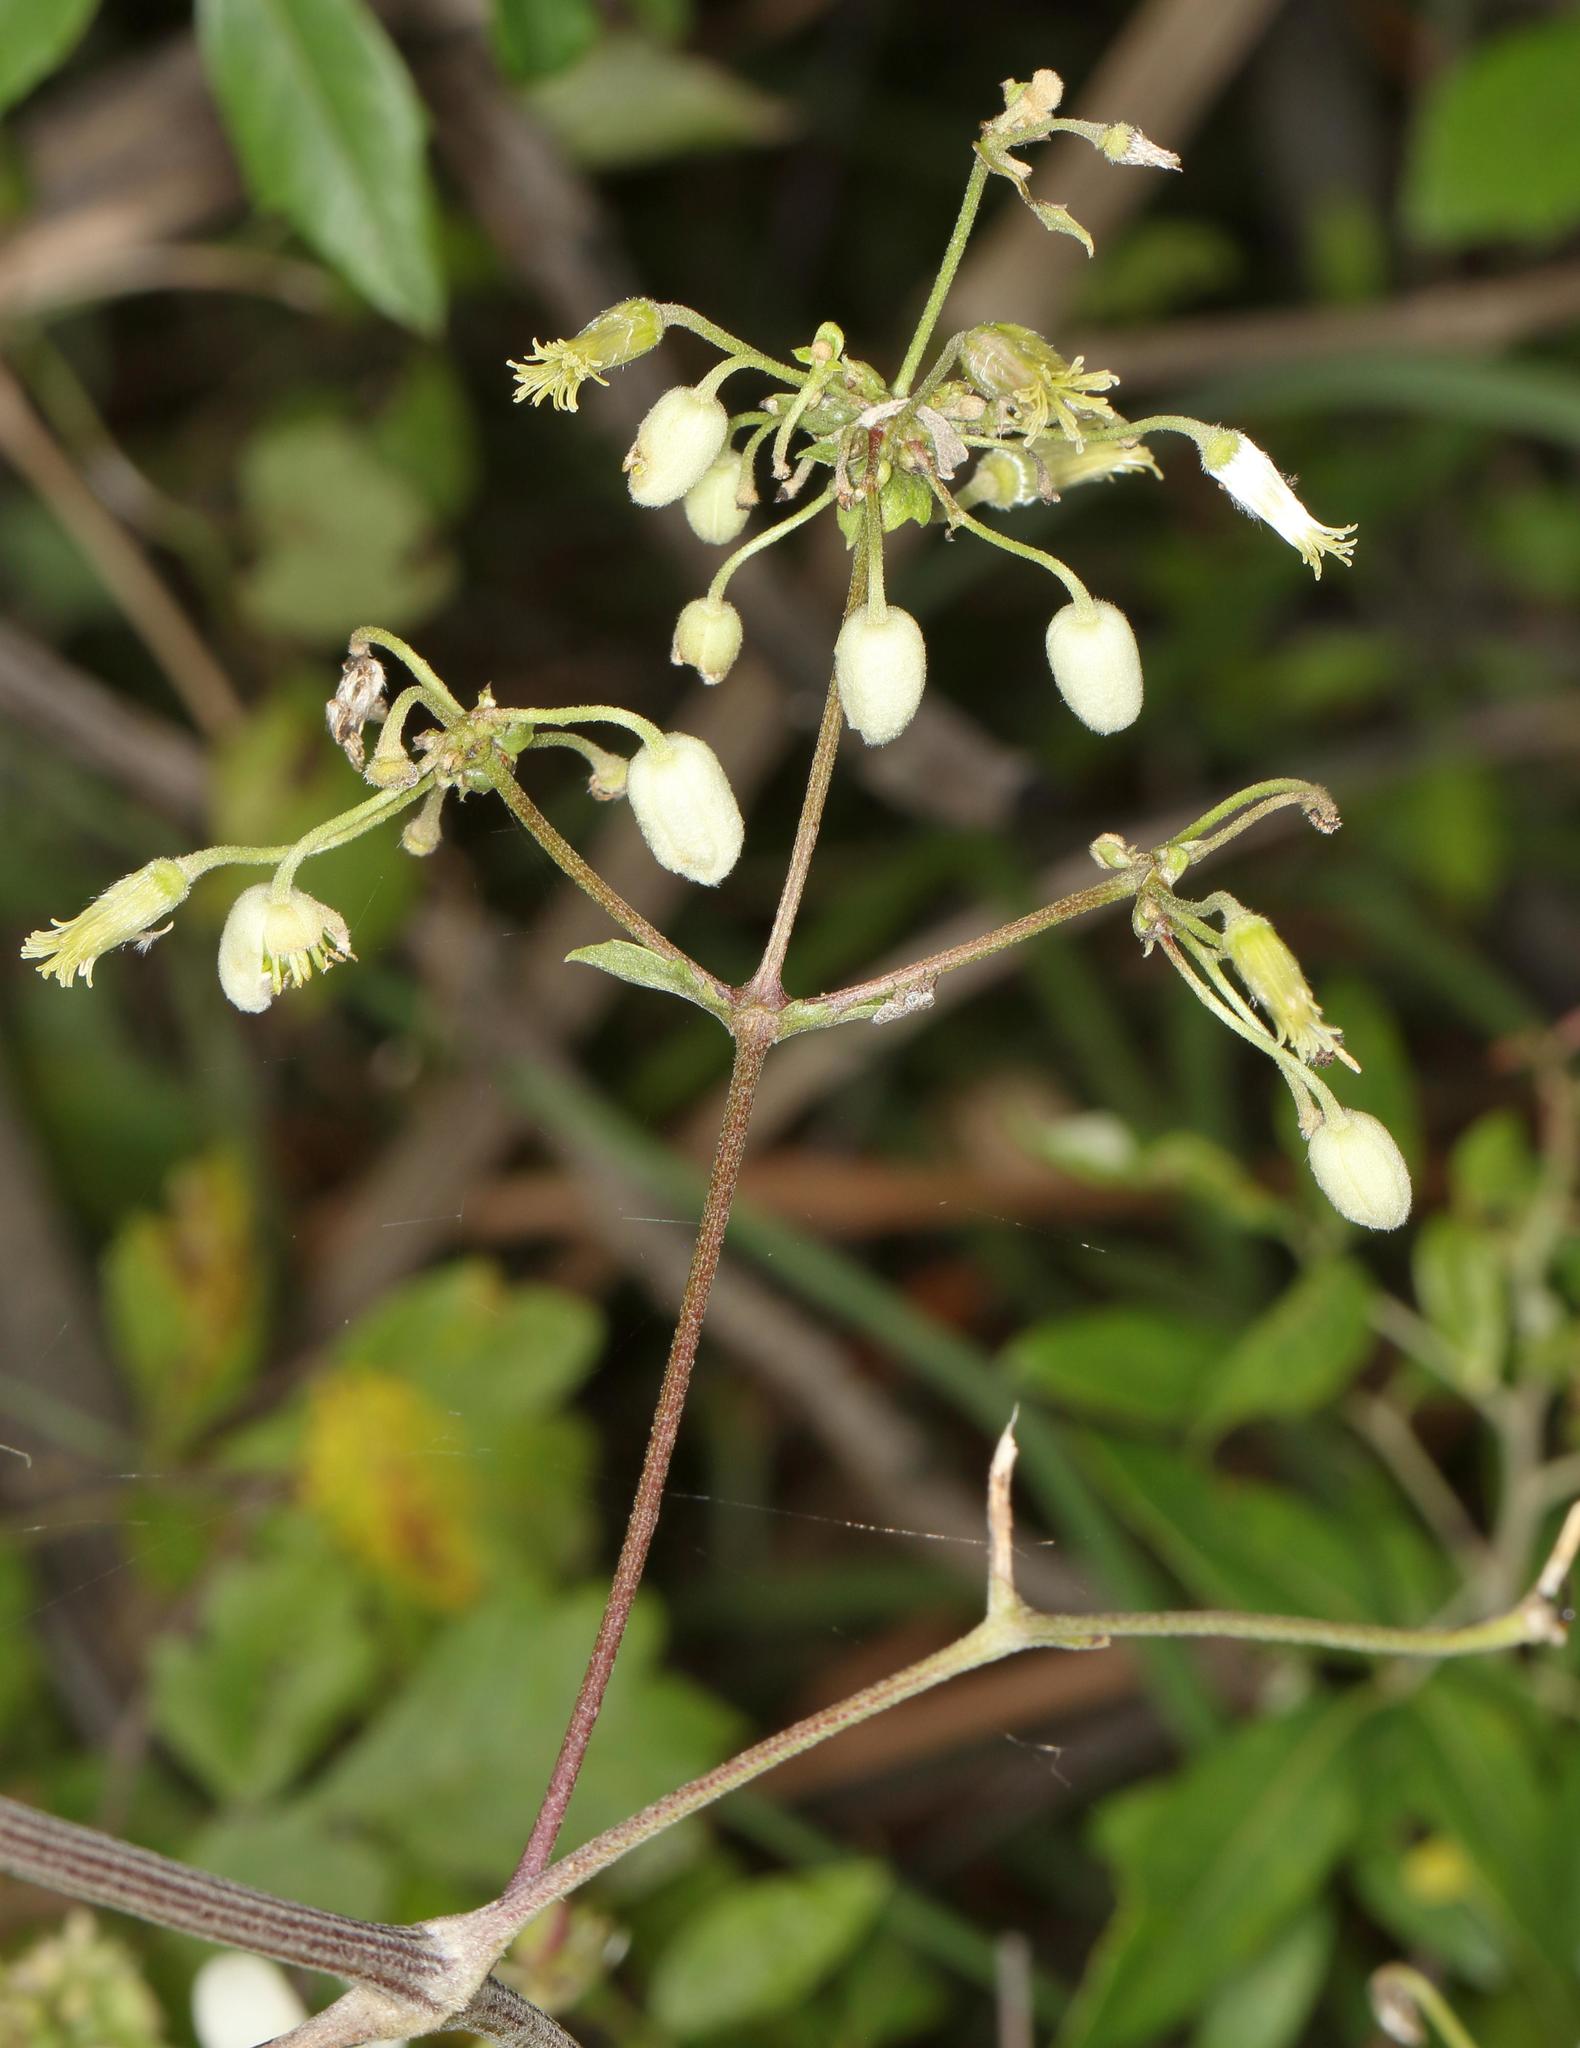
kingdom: Plantae
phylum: Tracheophyta
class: Magnoliopsida
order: Ranunculales
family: Ranunculaceae
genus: Clematis
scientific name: Clematis brachiata
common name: Traveler's-joy
